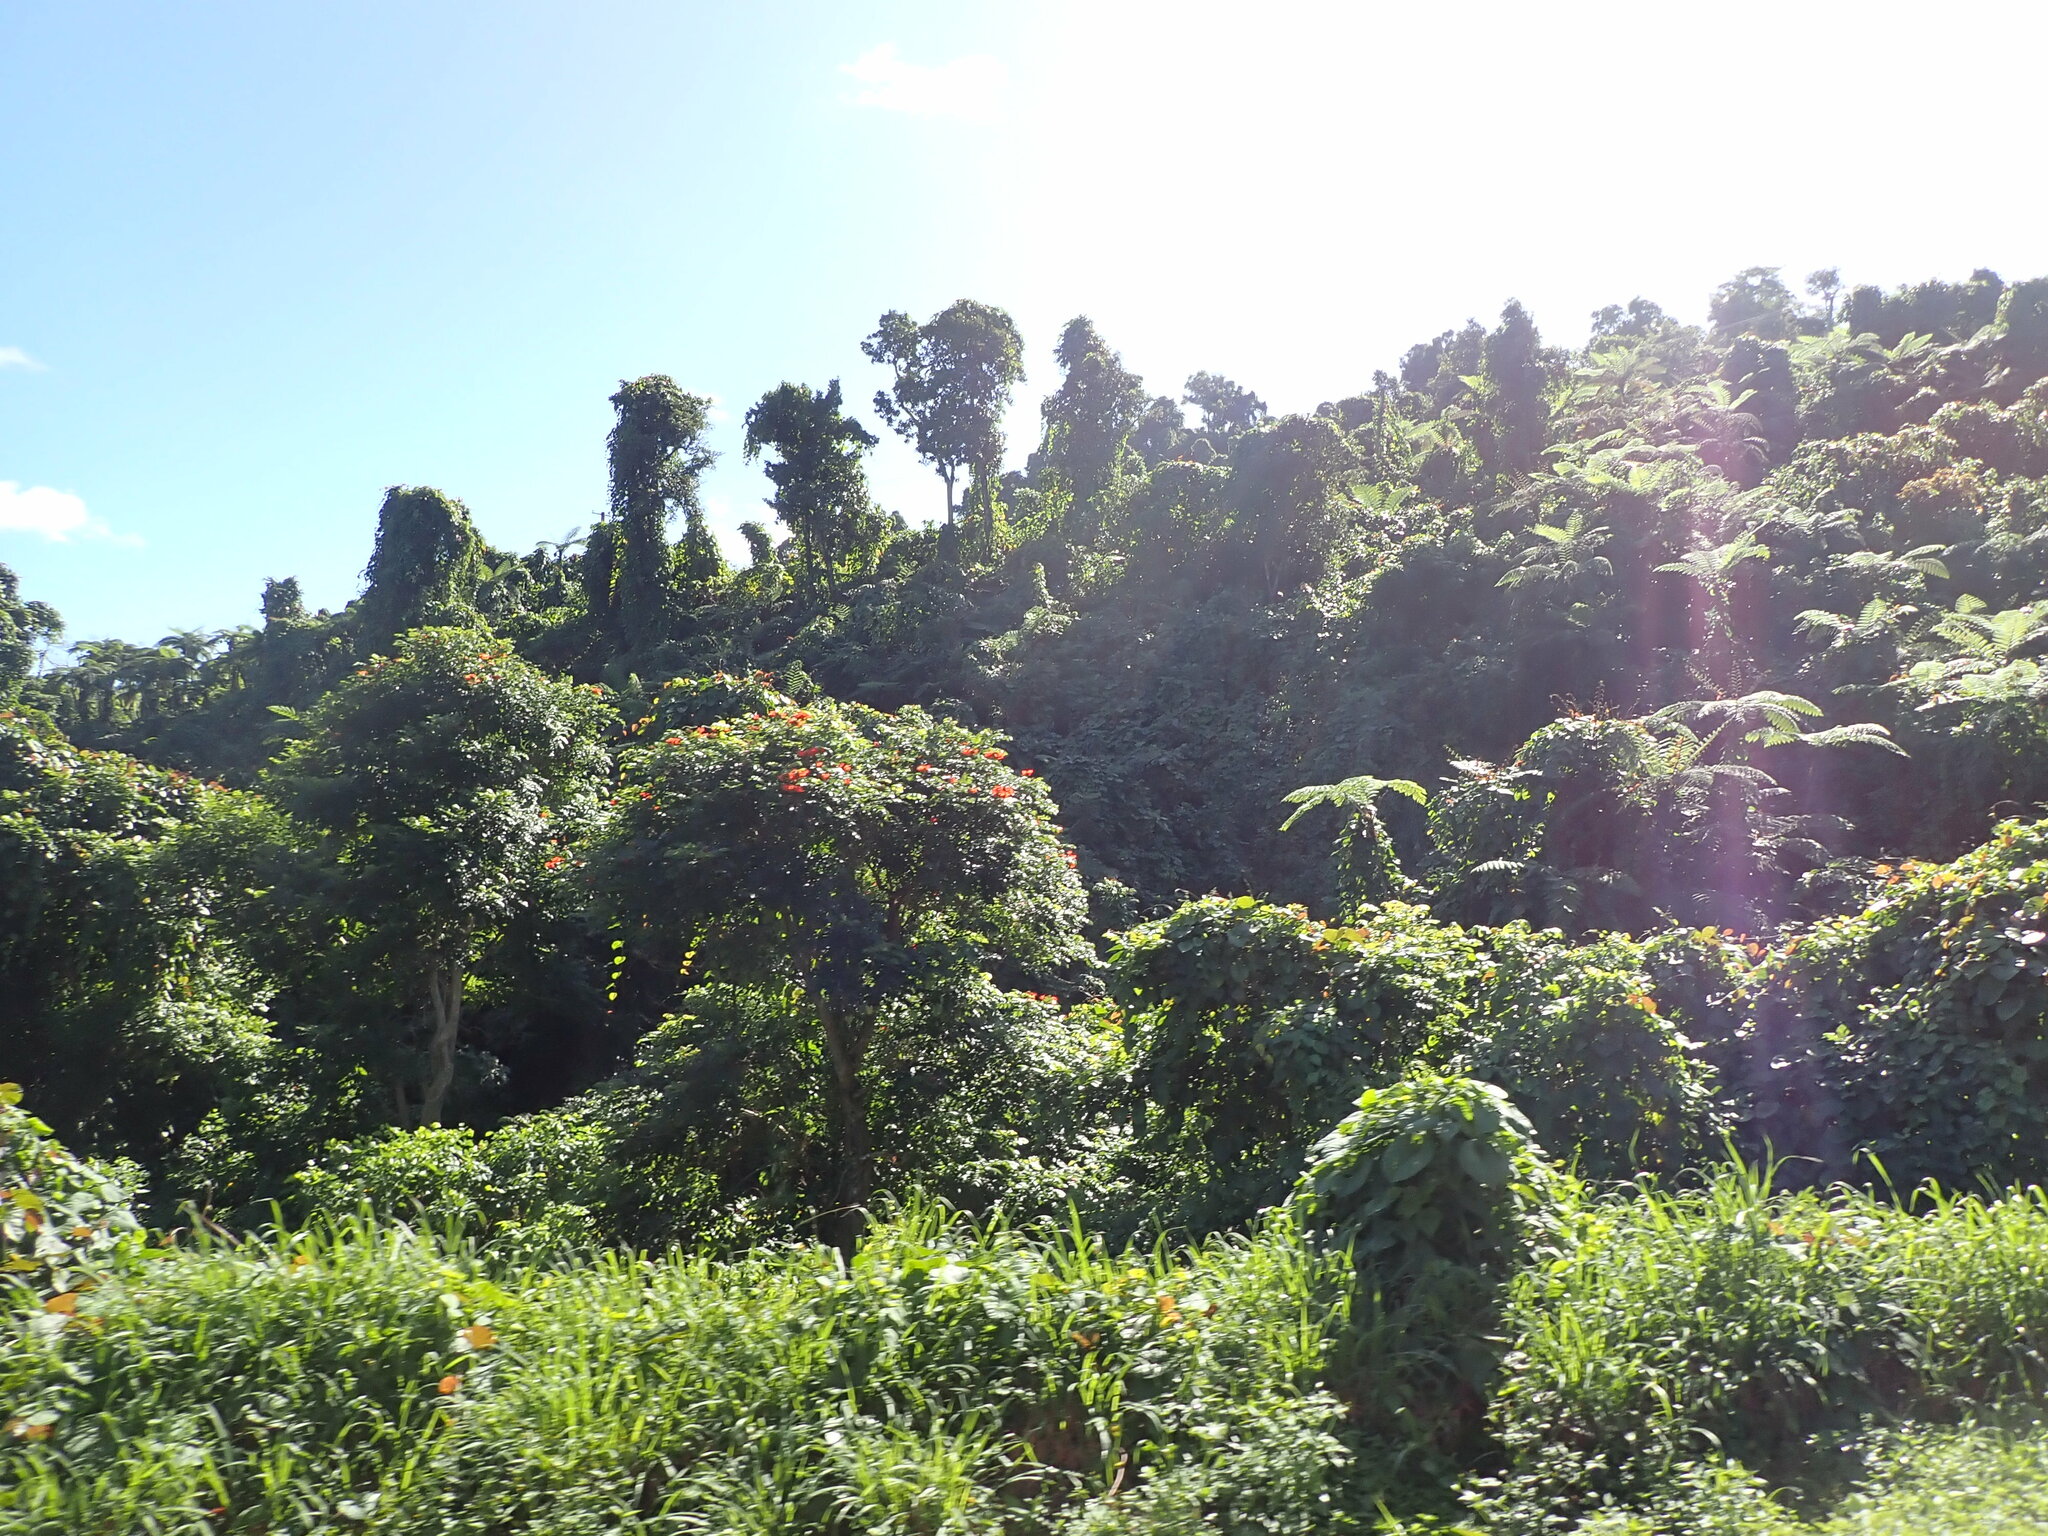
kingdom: Plantae
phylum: Tracheophyta
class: Magnoliopsida
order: Lamiales
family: Bignoniaceae
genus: Spathodea
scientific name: Spathodea campanulata
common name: African tuliptree
